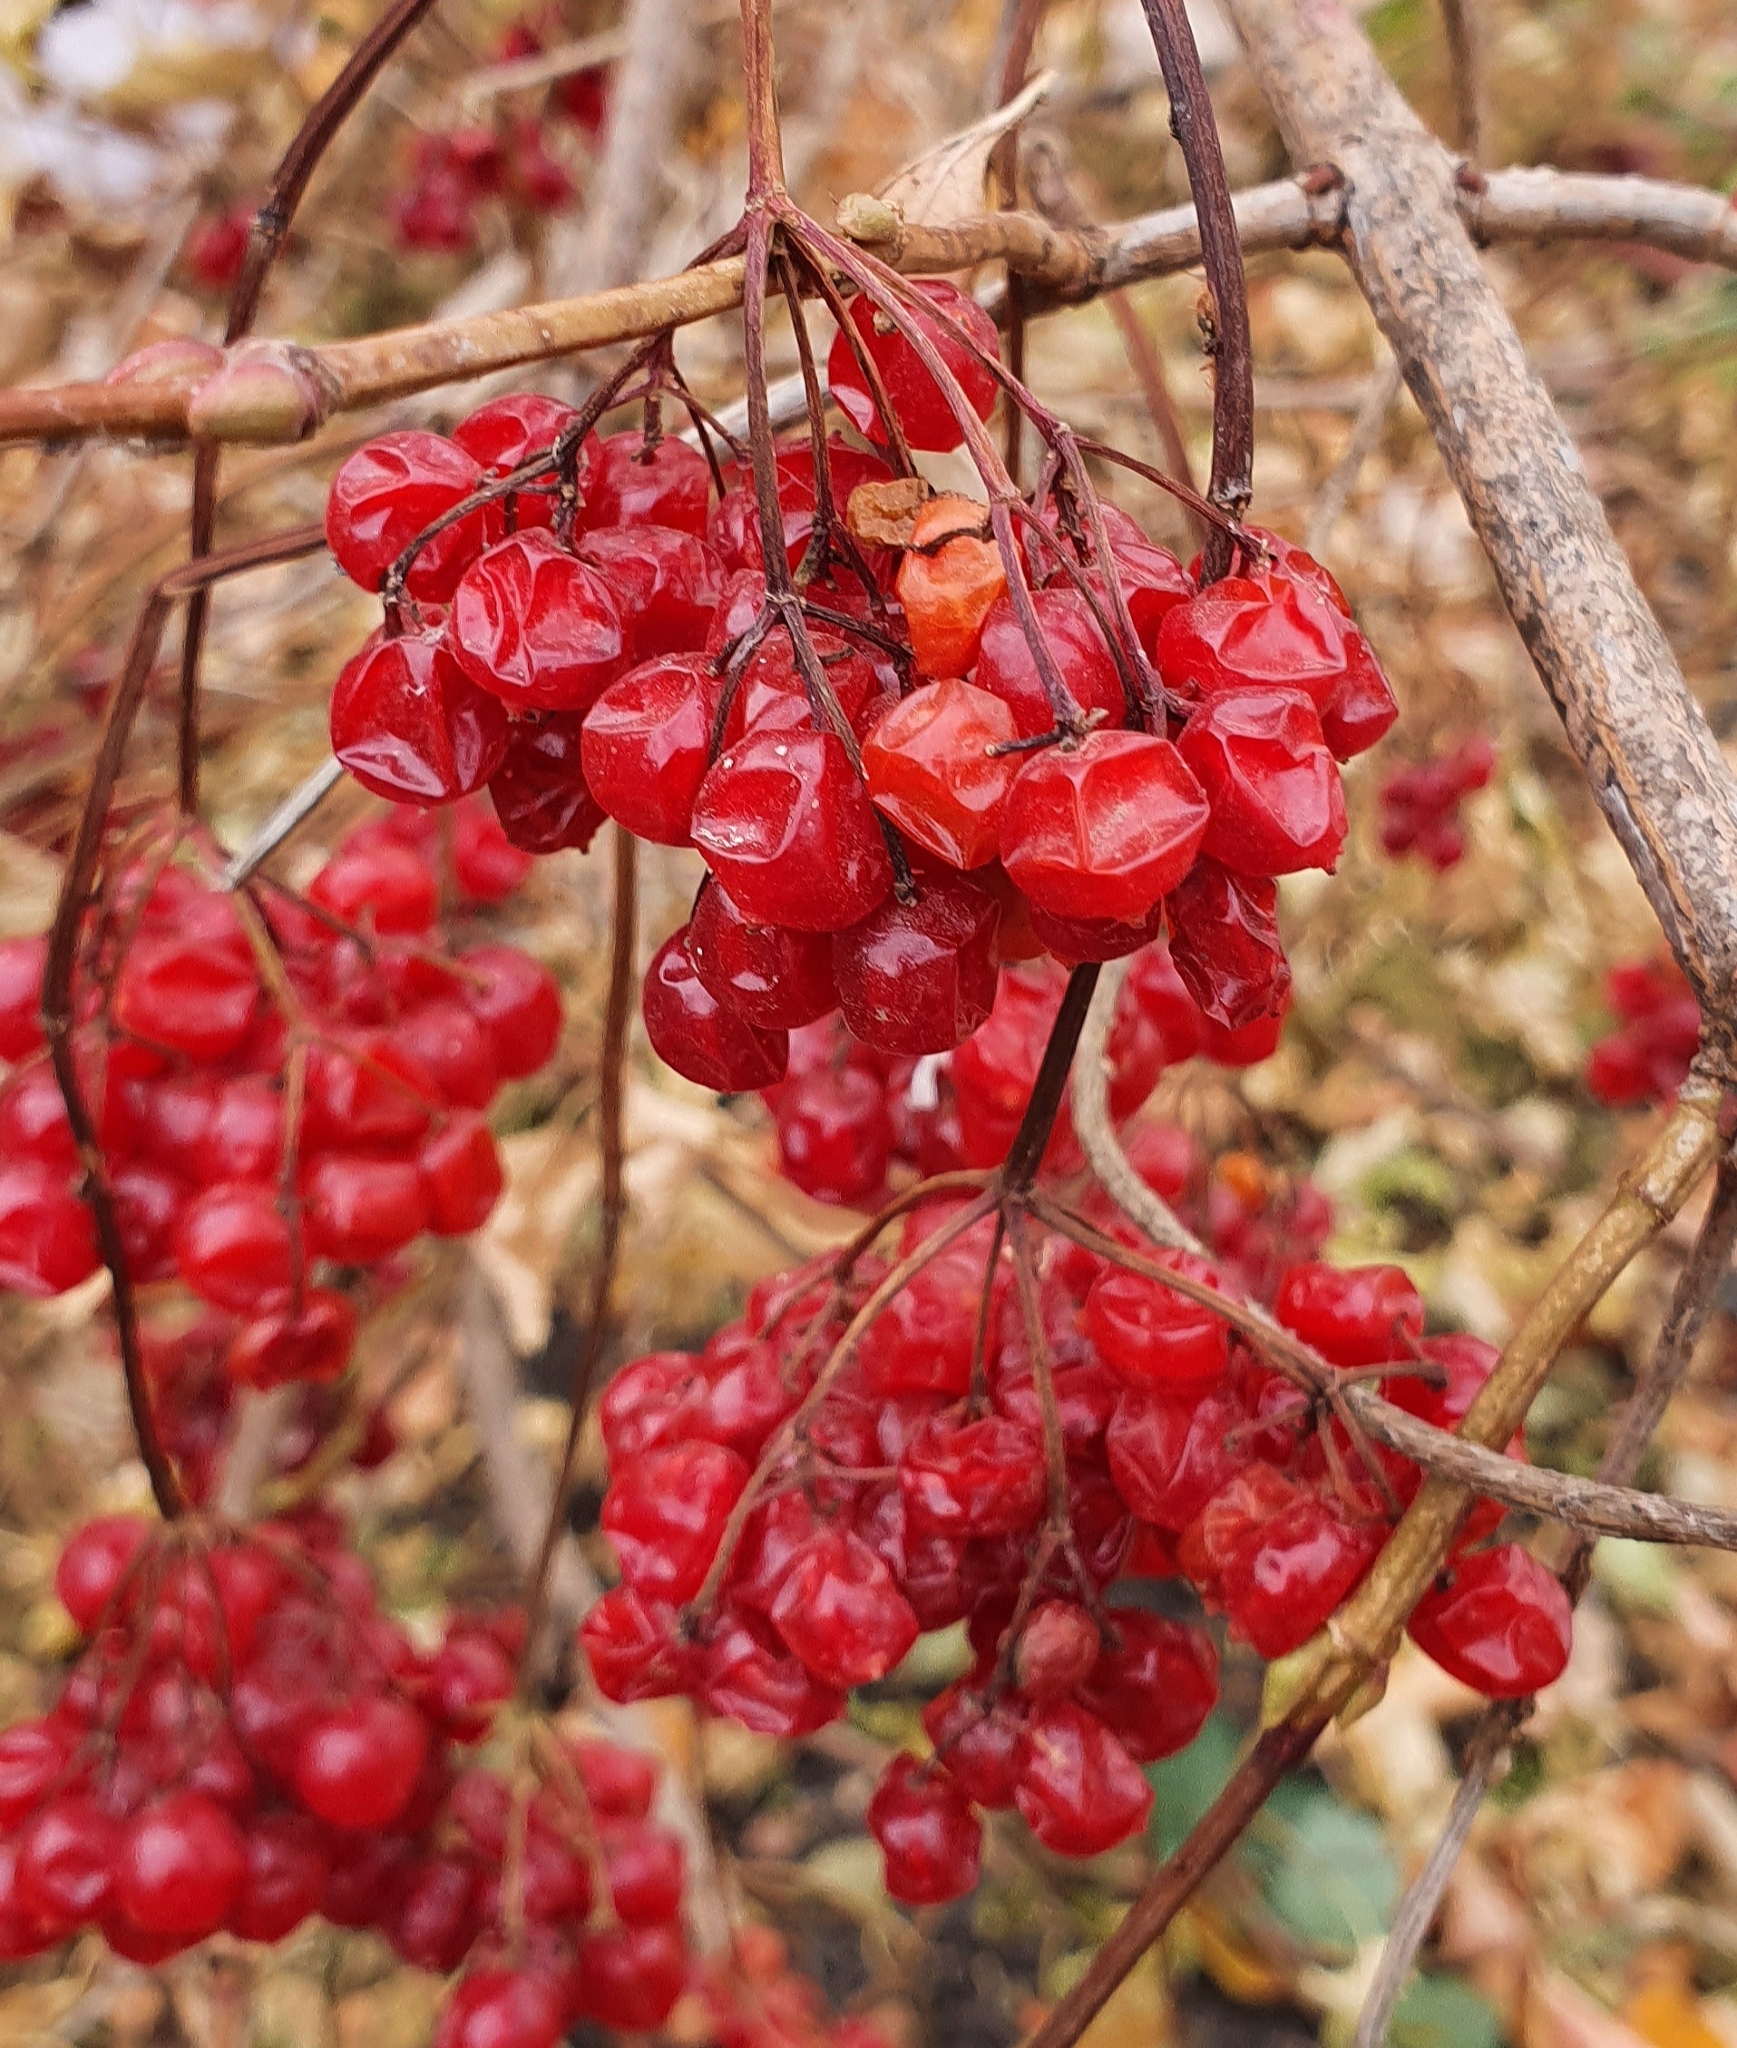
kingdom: Plantae
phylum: Tracheophyta
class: Magnoliopsida
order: Dipsacales
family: Viburnaceae
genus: Viburnum
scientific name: Viburnum opulus
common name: Guelder-rose
